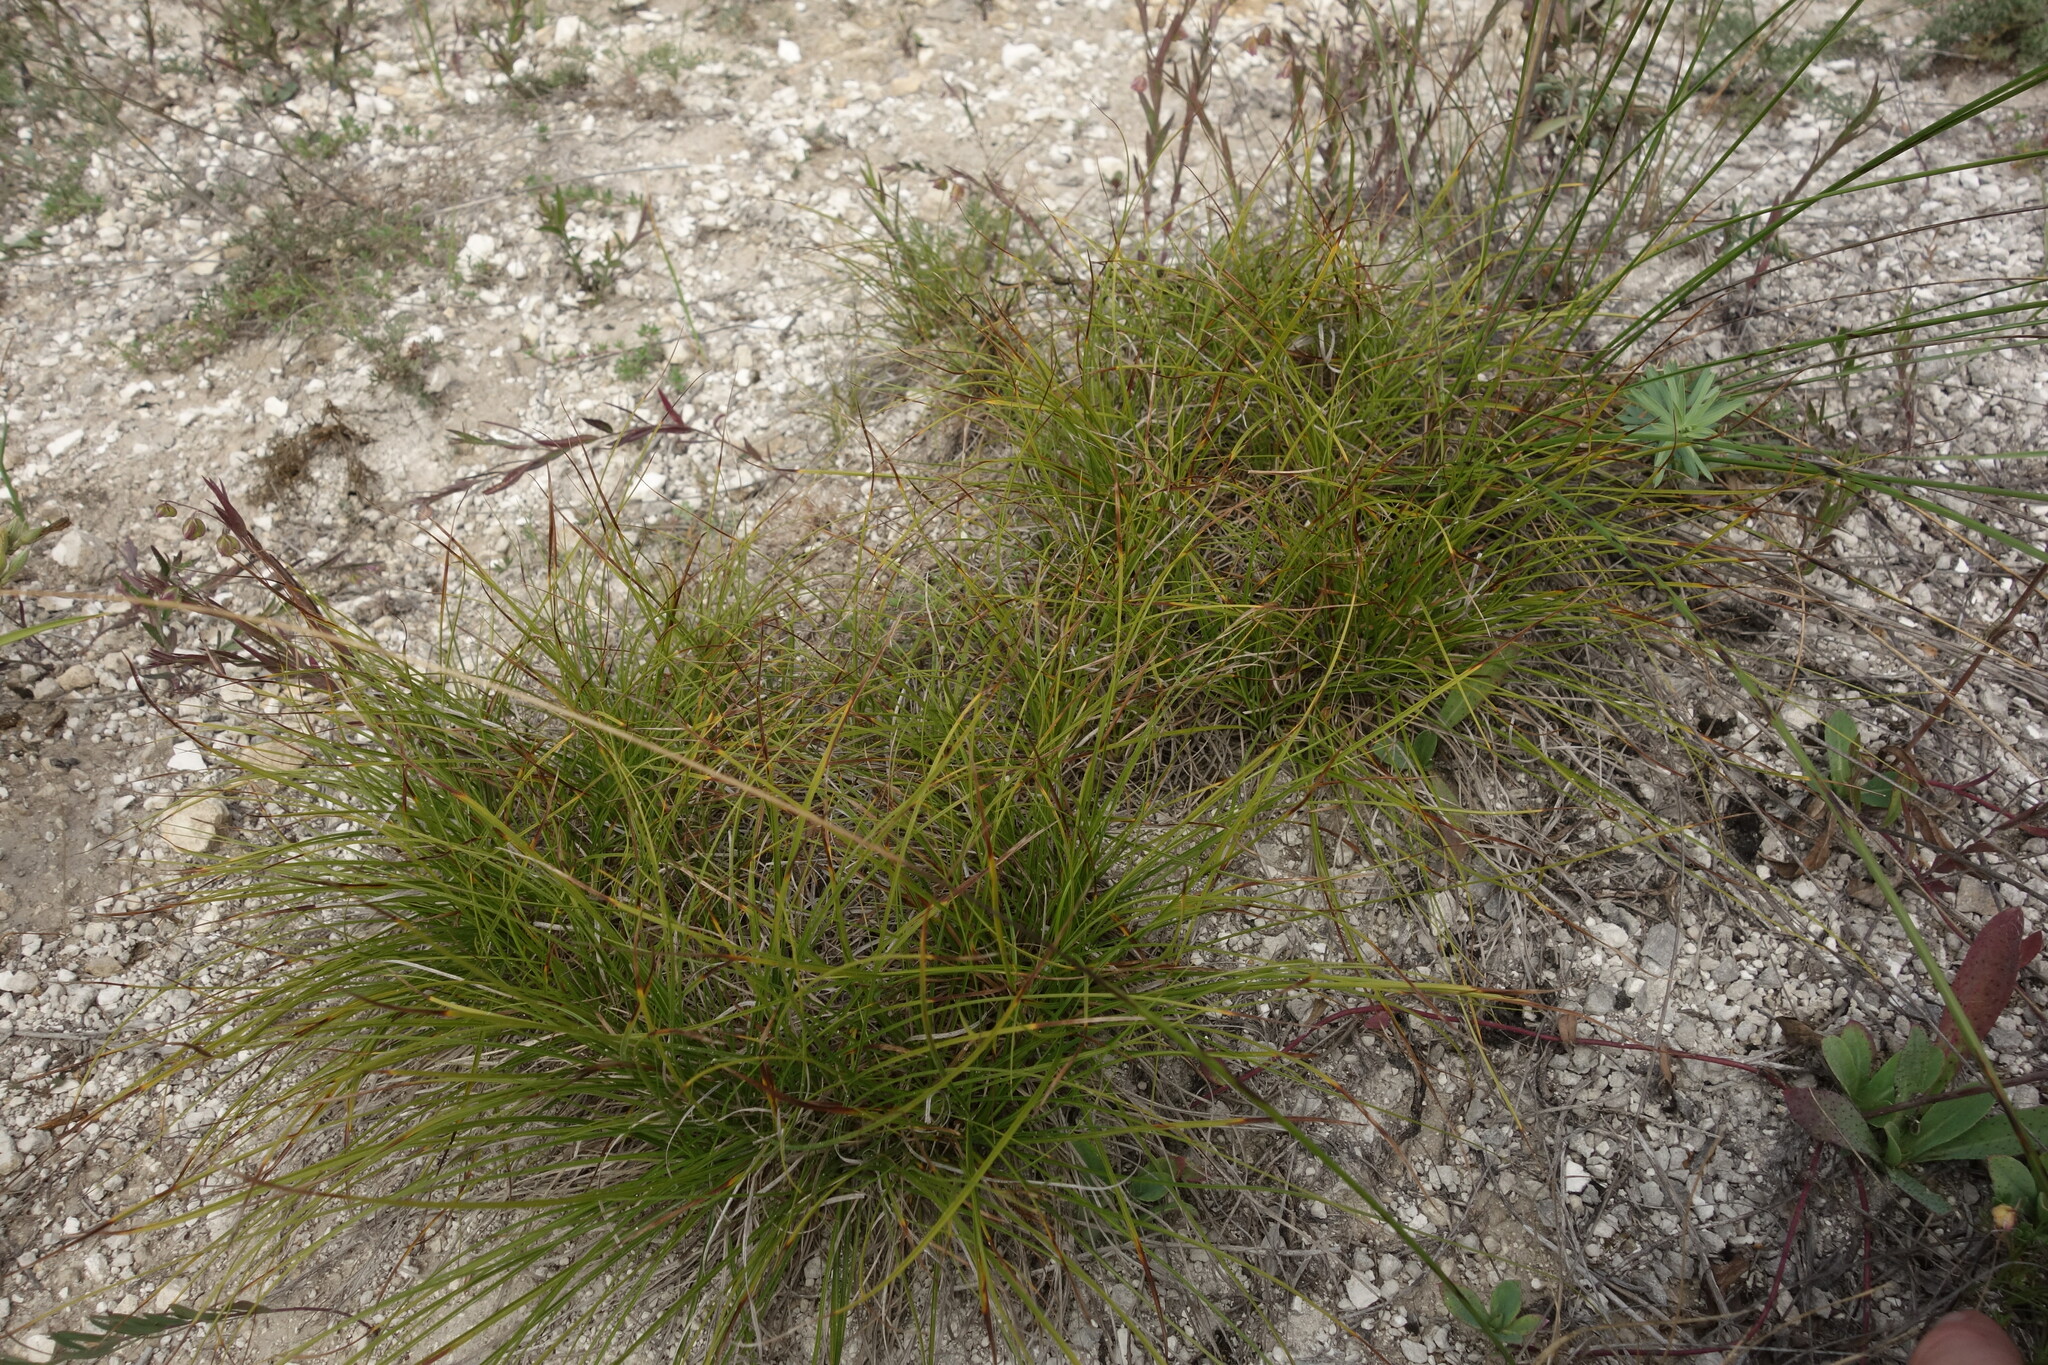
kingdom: Plantae
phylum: Tracheophyta
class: Liliopsida
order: Poales
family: Cyperaceae
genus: Carex
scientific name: Carex humilis
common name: Dwarf sedge
